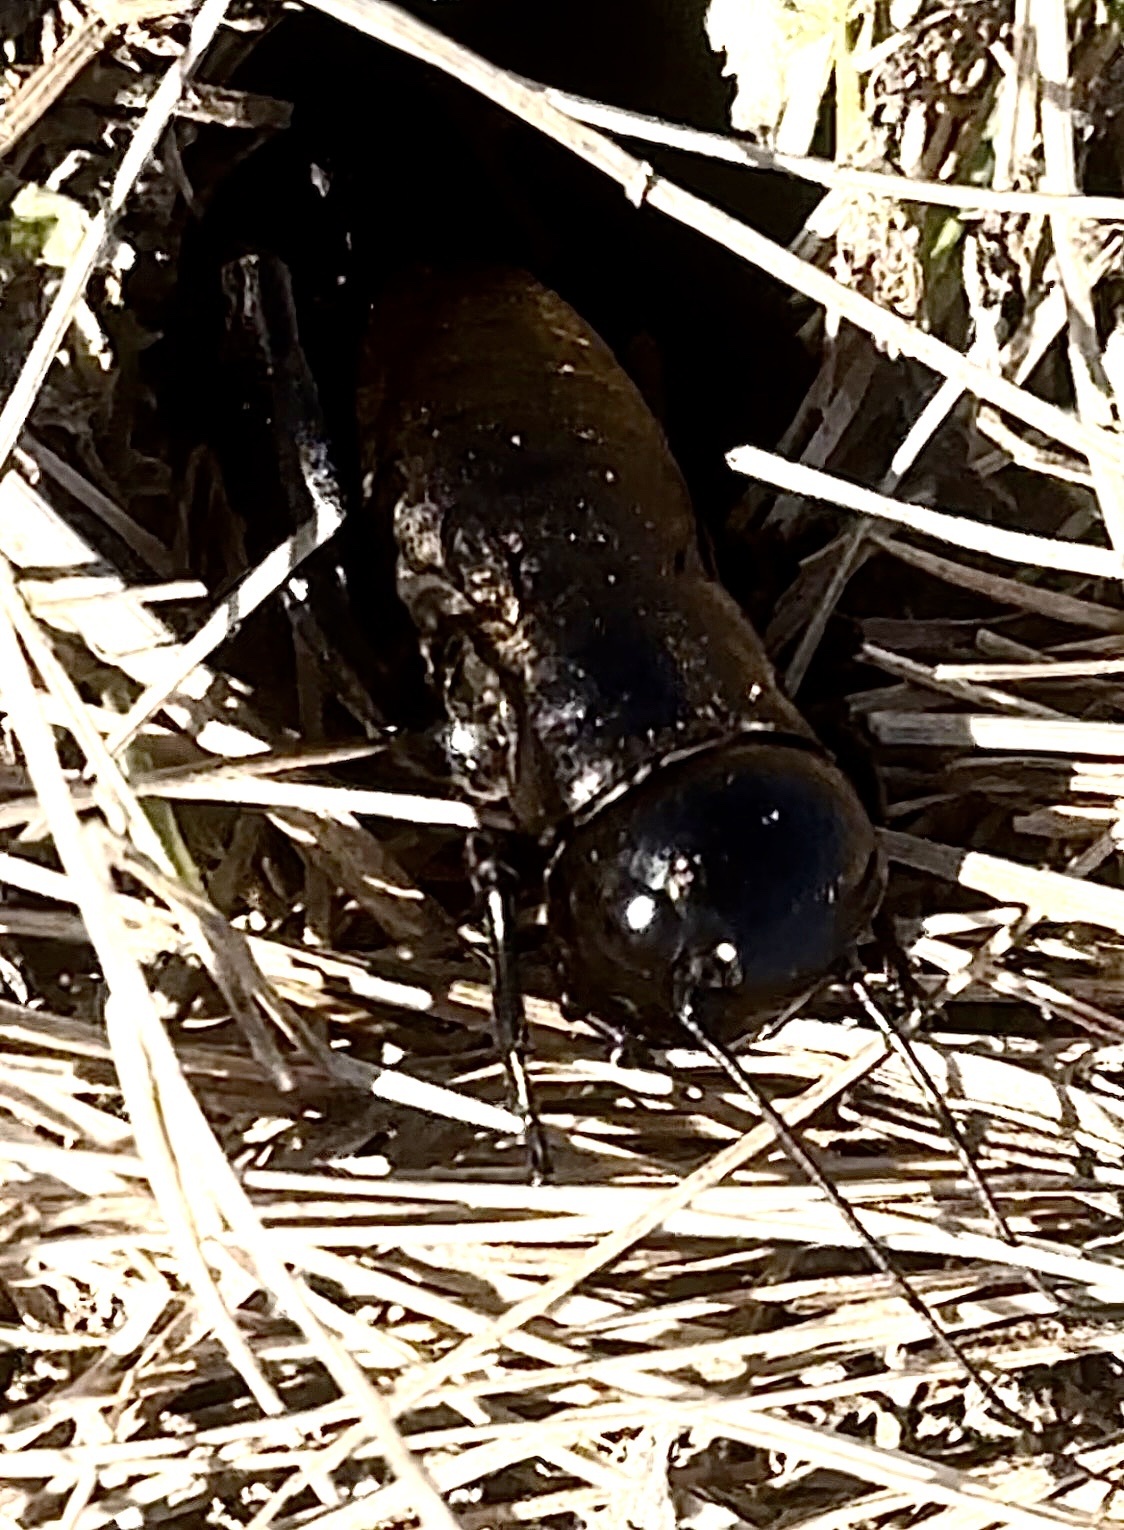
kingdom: Animalia
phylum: Arthropoda
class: Insecta
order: Orthoptera
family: Gryllidae
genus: Gryllus
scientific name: Gryllus campestris
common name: Field cricket
